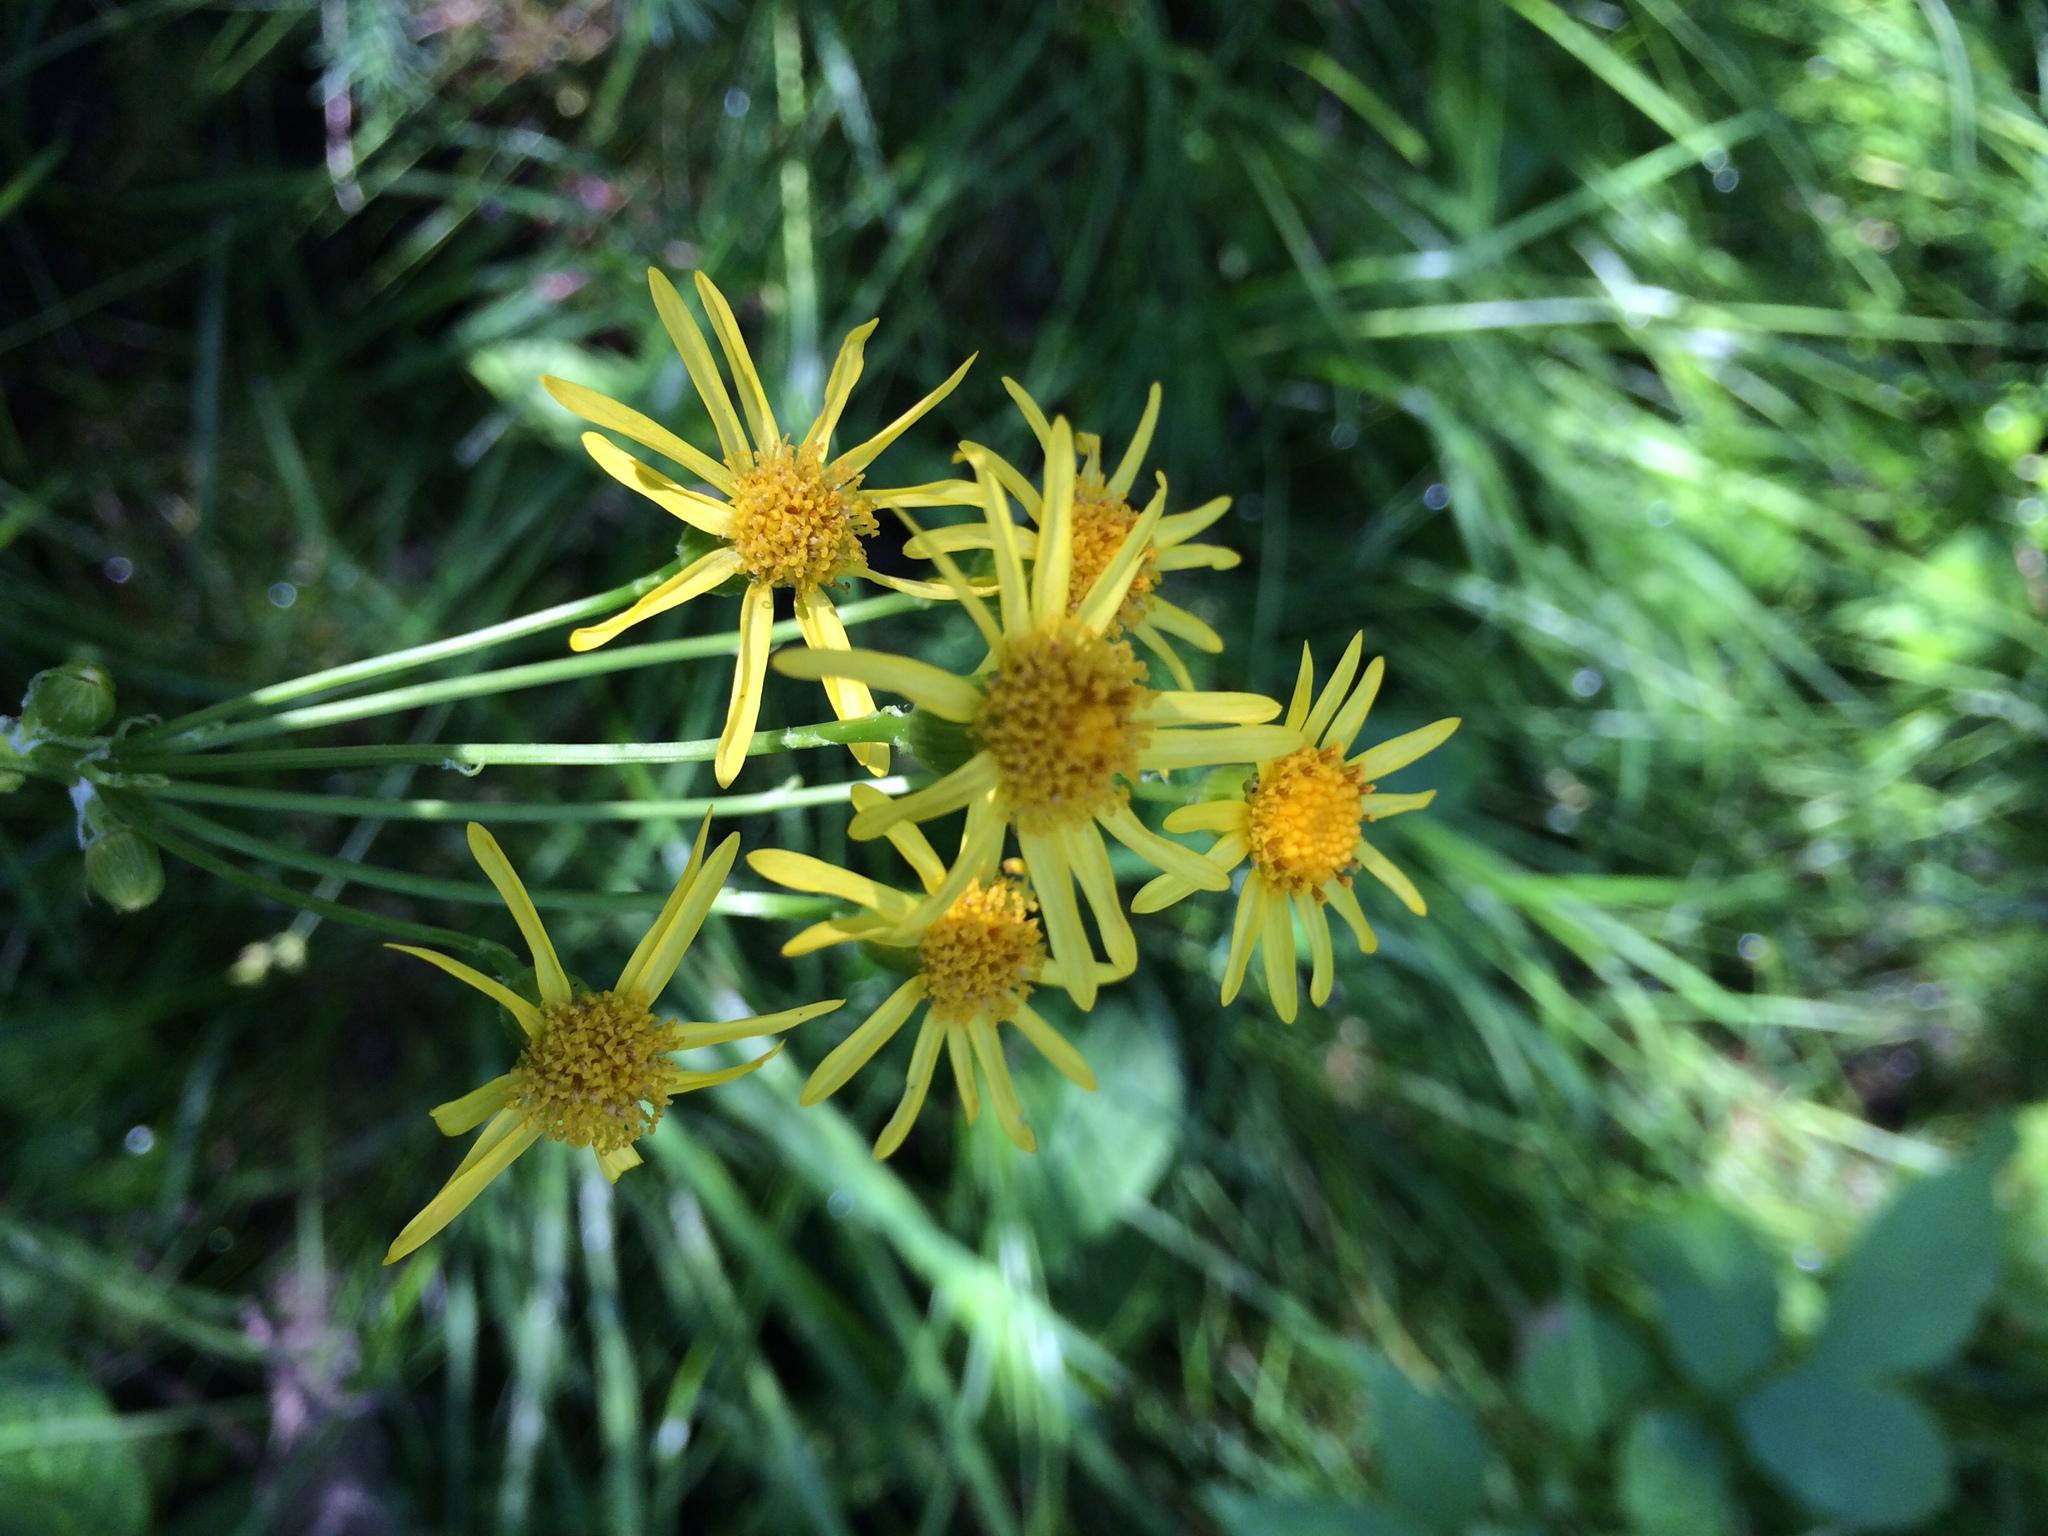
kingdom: Plantae
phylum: Tracheophyta
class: Magnoliopsida
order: Asterales
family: Asteraceae
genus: Packera
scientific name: Packera aurea
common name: Golden groundsel
